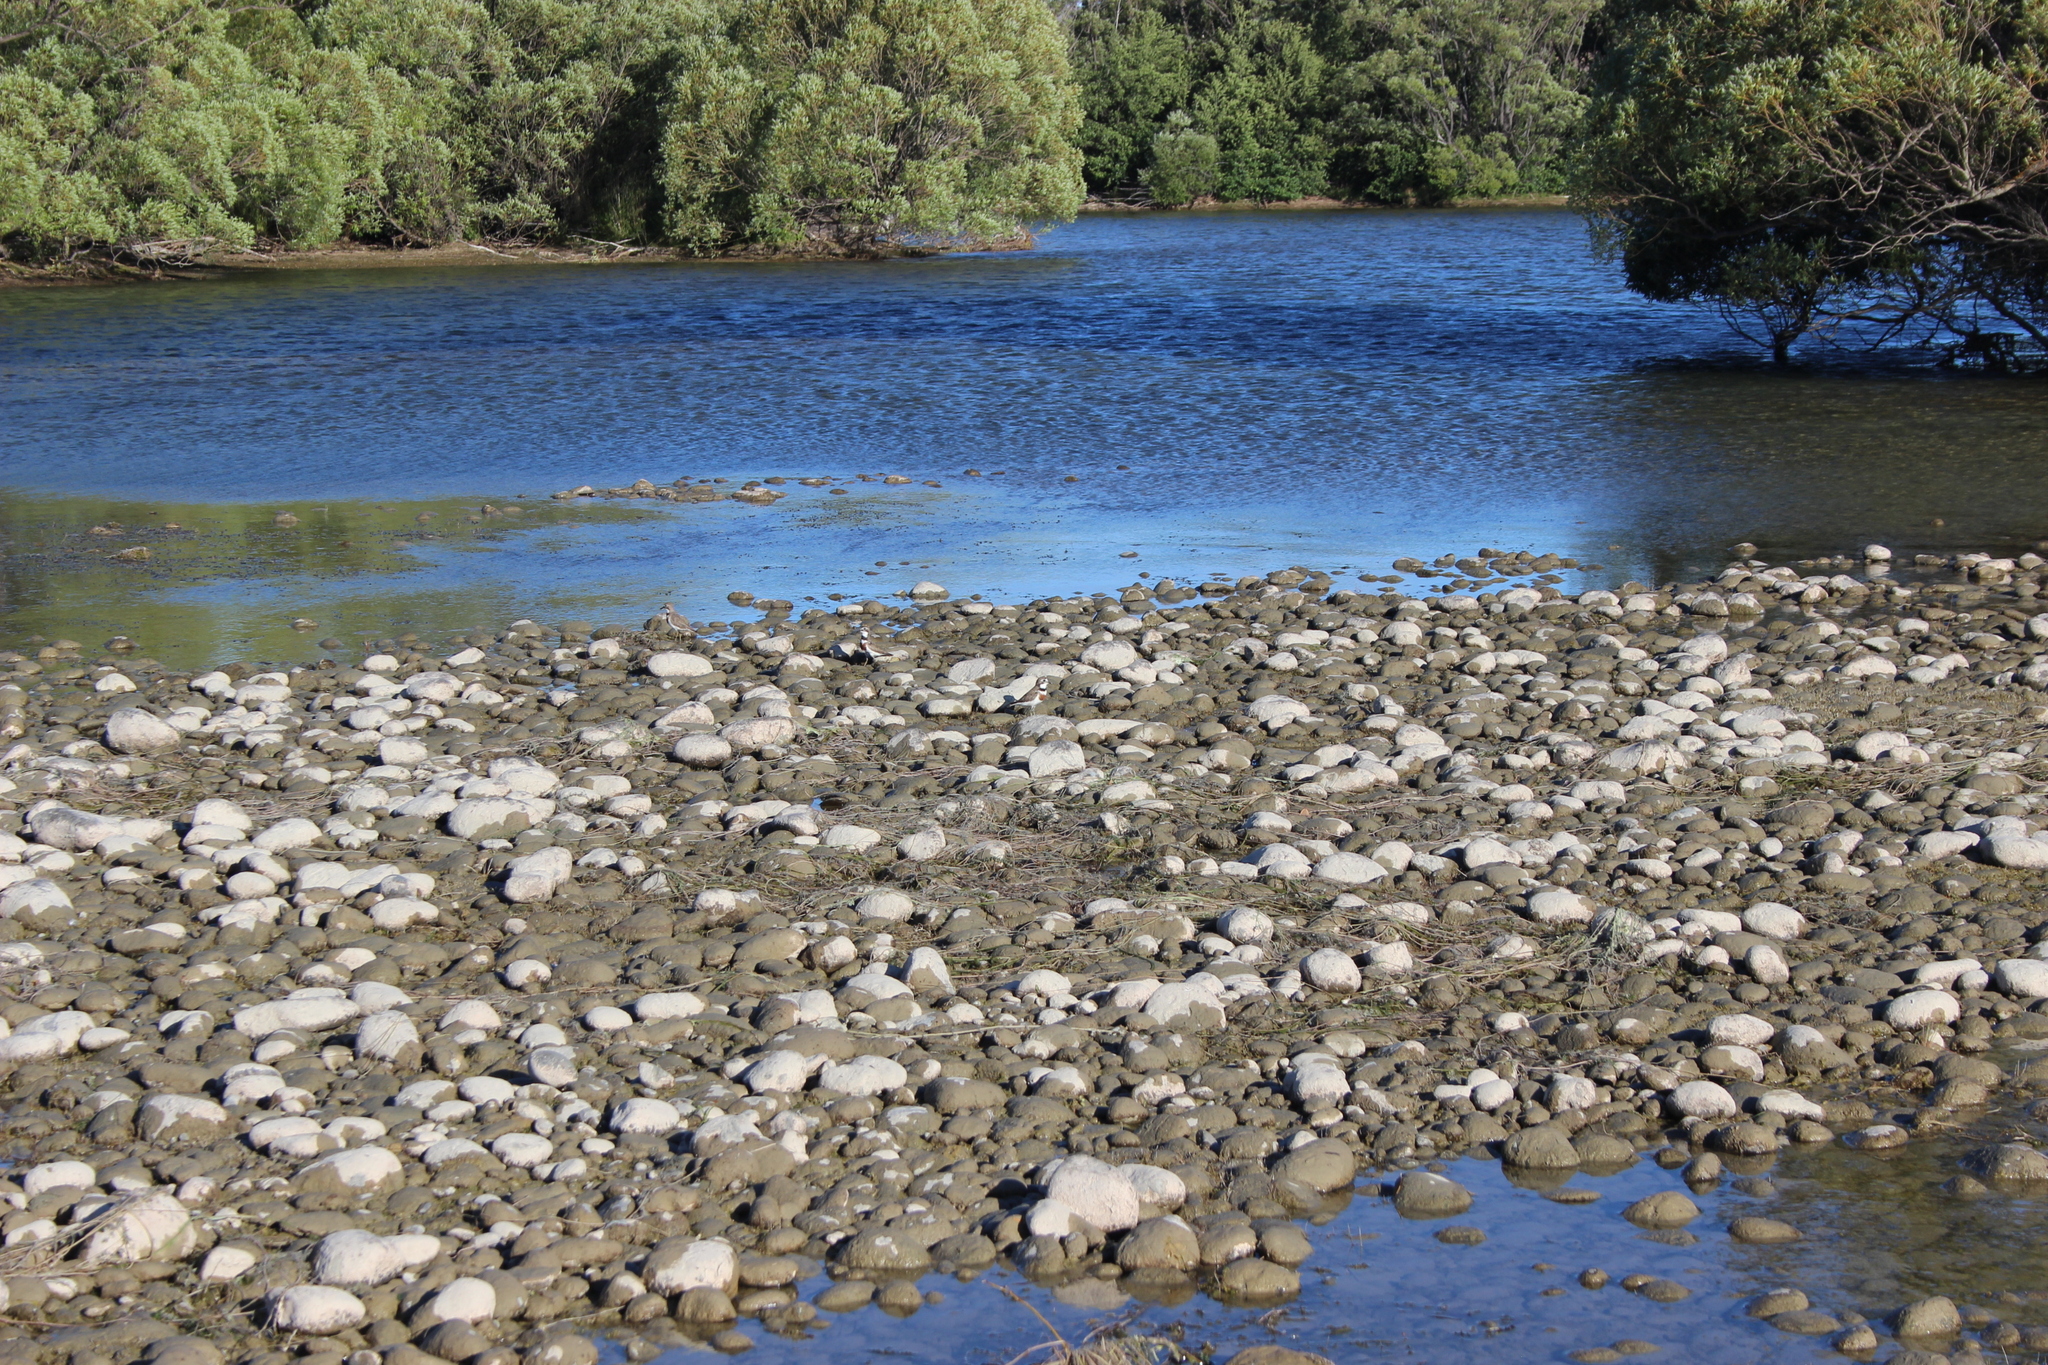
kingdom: Animalia
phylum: Chordata
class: Aves
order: Charadriiformes
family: Charadriidae
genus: Anarhynchus
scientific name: Anarhynchus
